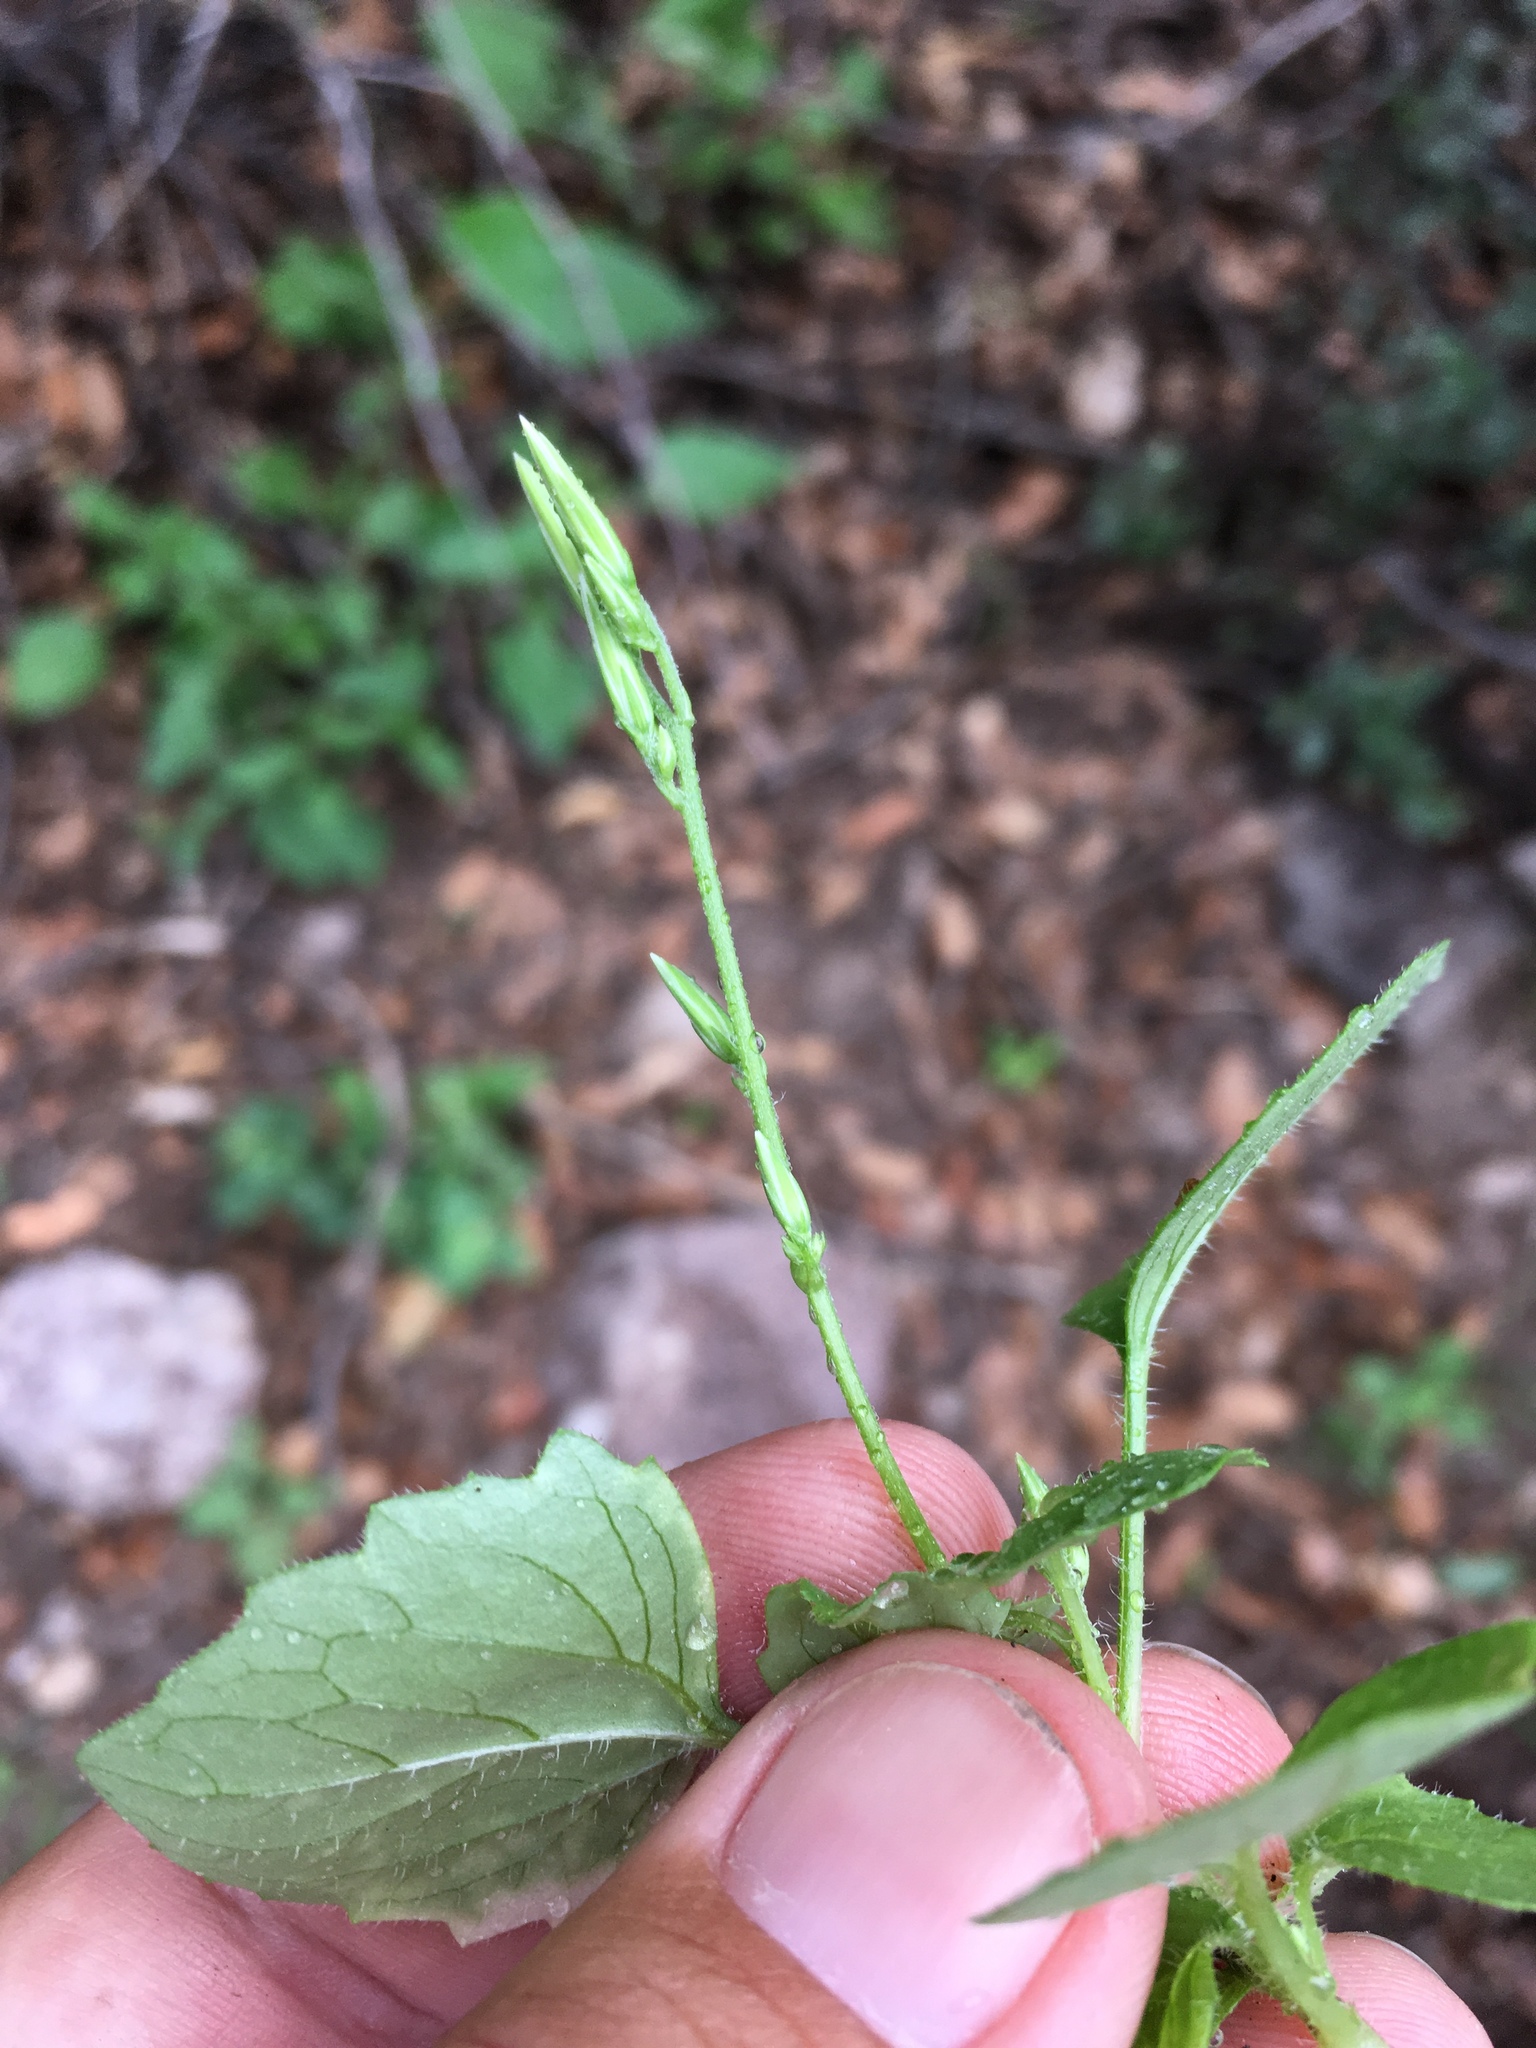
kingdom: Plantae
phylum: Tracheophyta
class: Magnoliopsida
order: Asterales
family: Asteraceae
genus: Carminatia
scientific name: Carminatia tenuiflora
